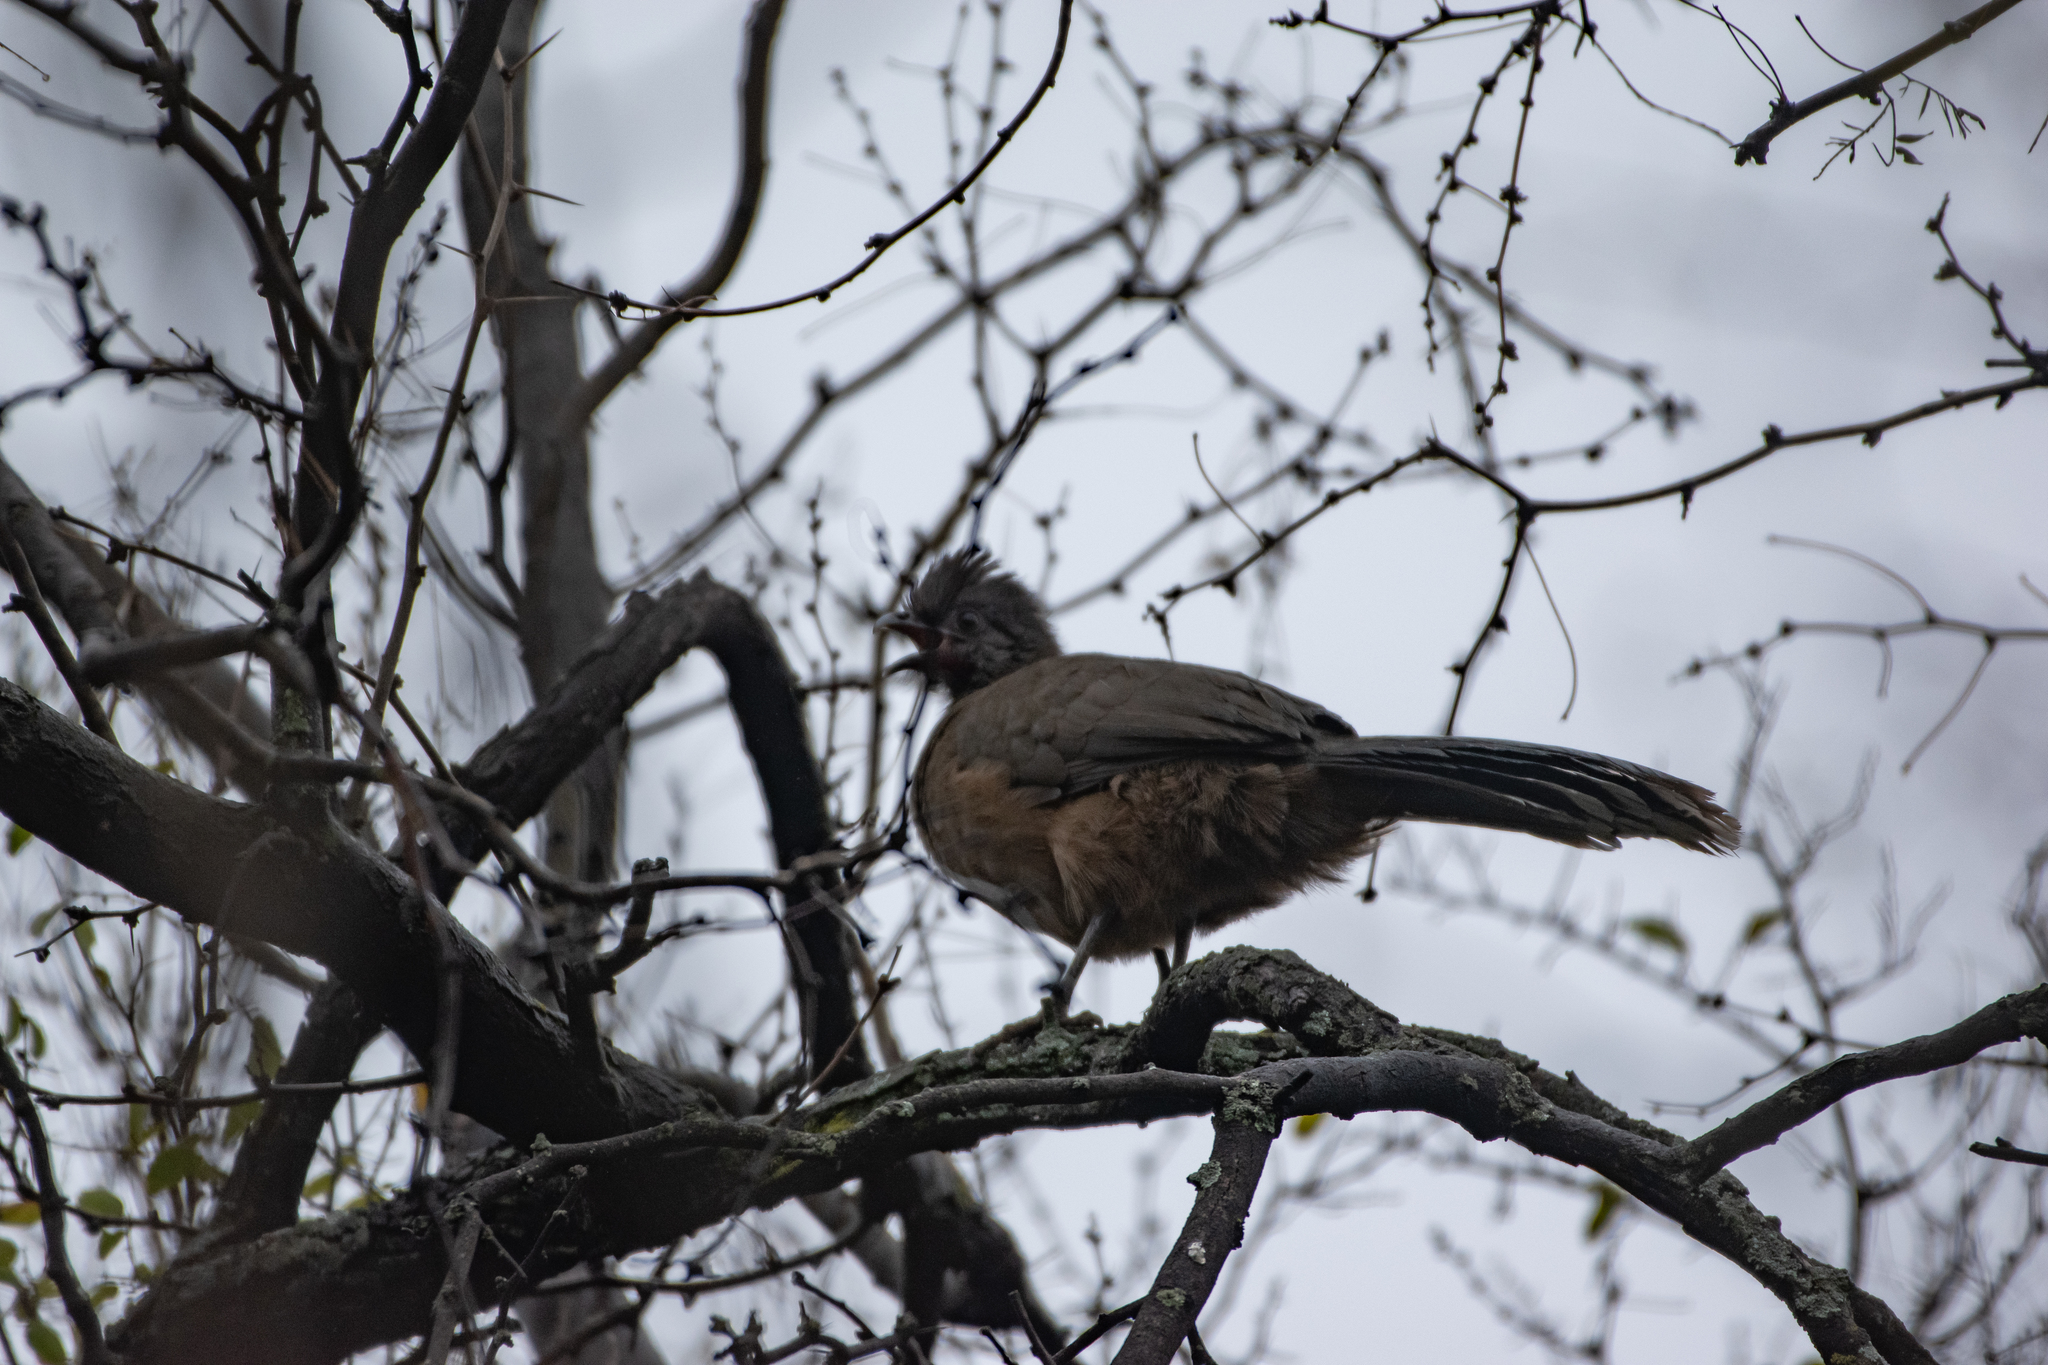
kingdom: Animalia
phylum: Chordata
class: Aves
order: Galliformes
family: Cracidae
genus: Ortalis
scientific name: Ortalis vetula
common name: Plain chachalaca
